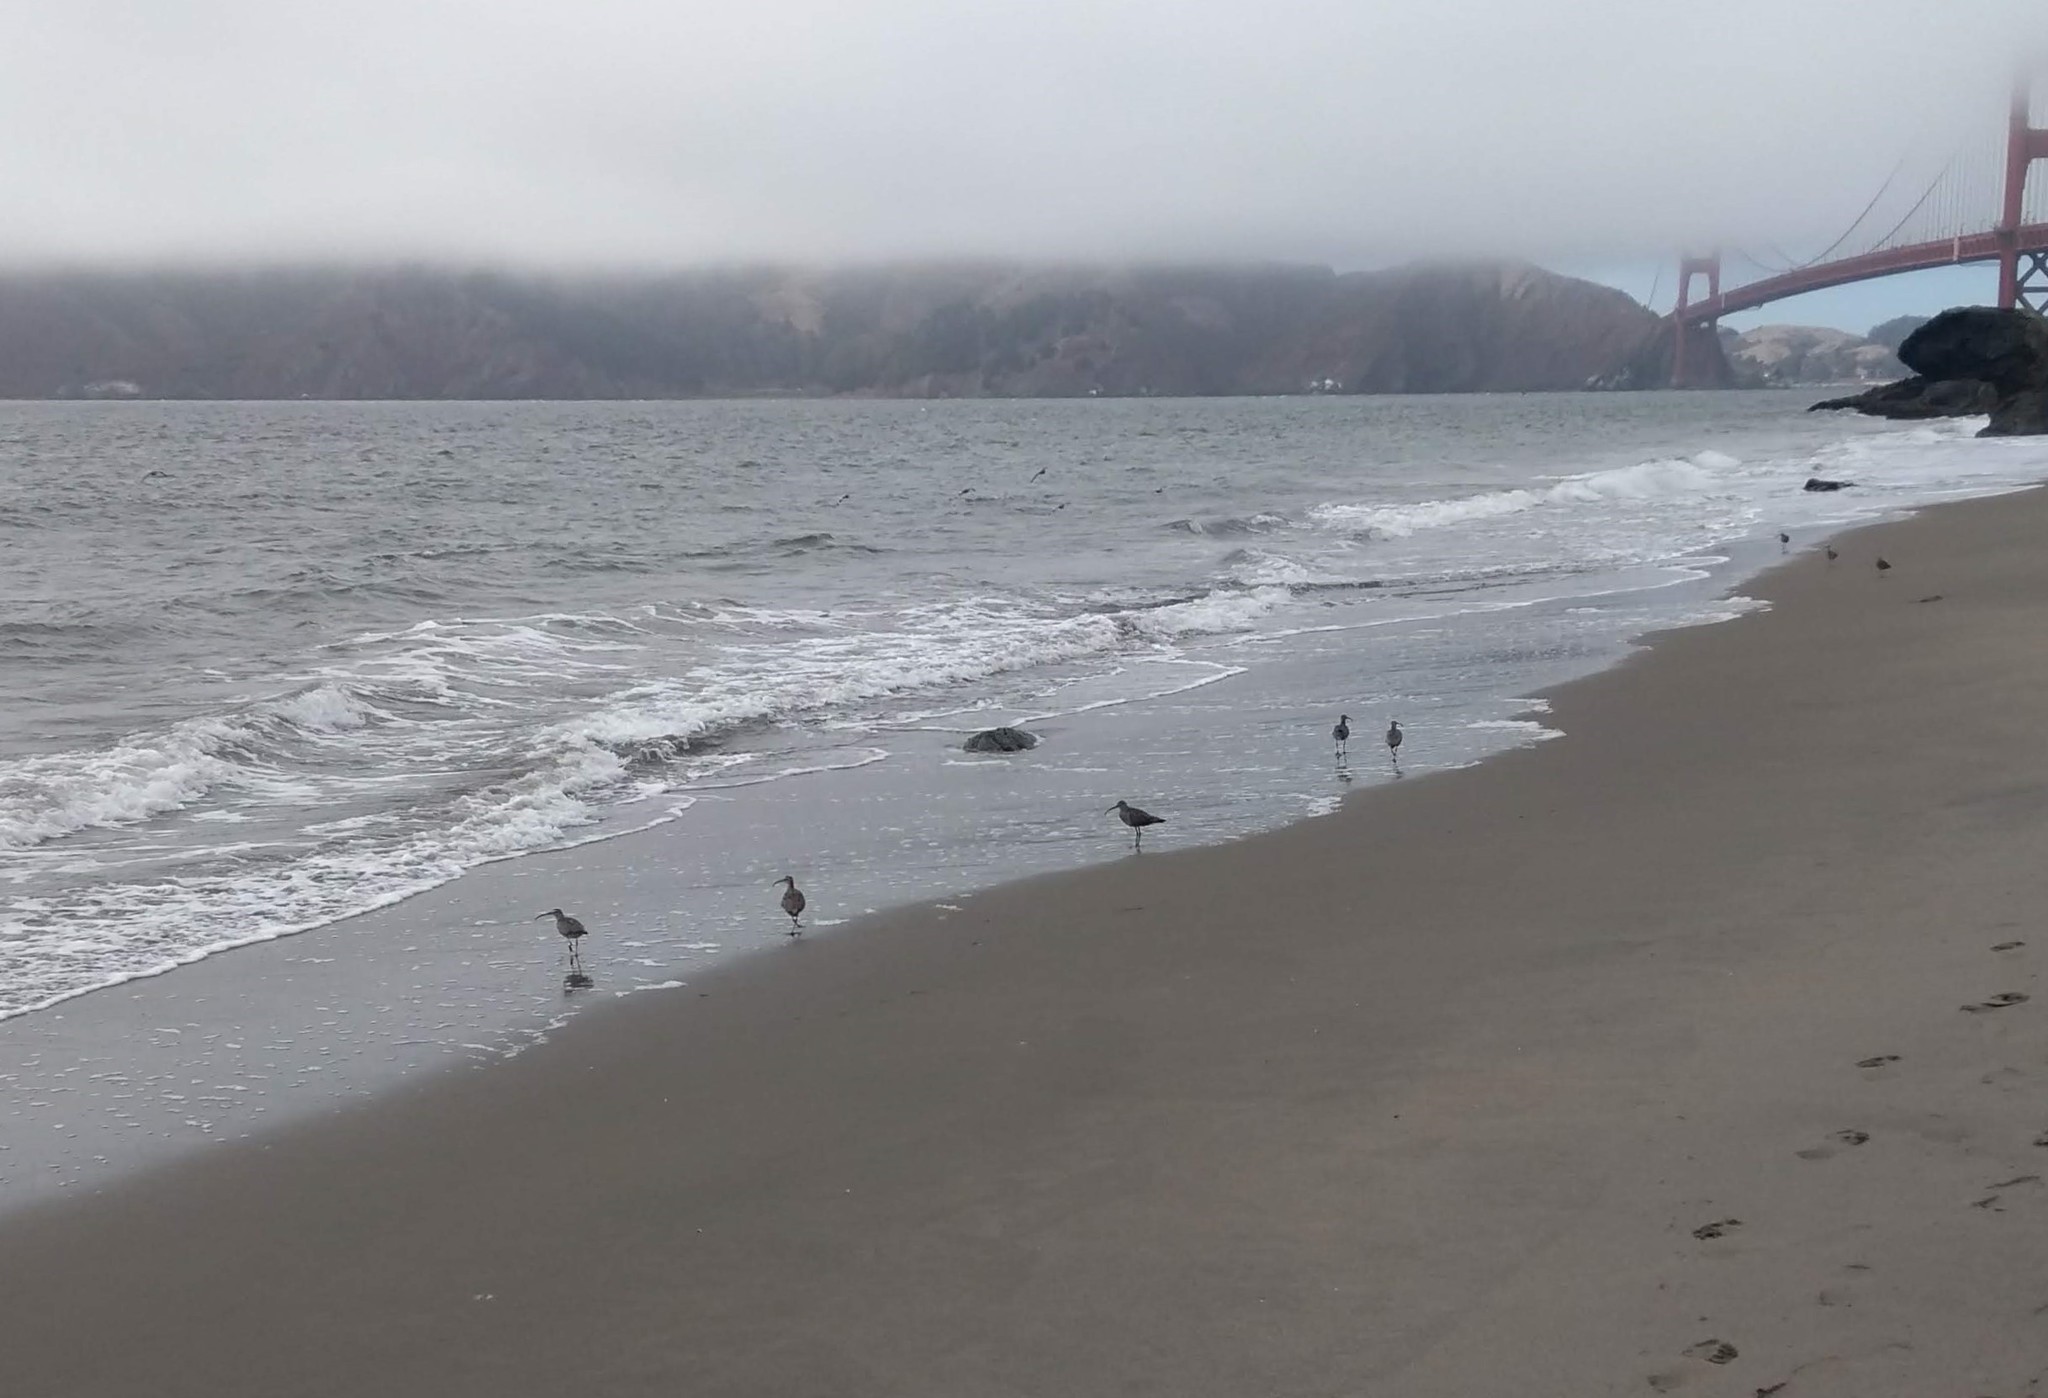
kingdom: Animalia
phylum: Chordata
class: Aves
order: Charadriiformes
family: Scolopacidae
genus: Numenius
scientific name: Numenius hudsonicus
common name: Hudsonian whimbrel
